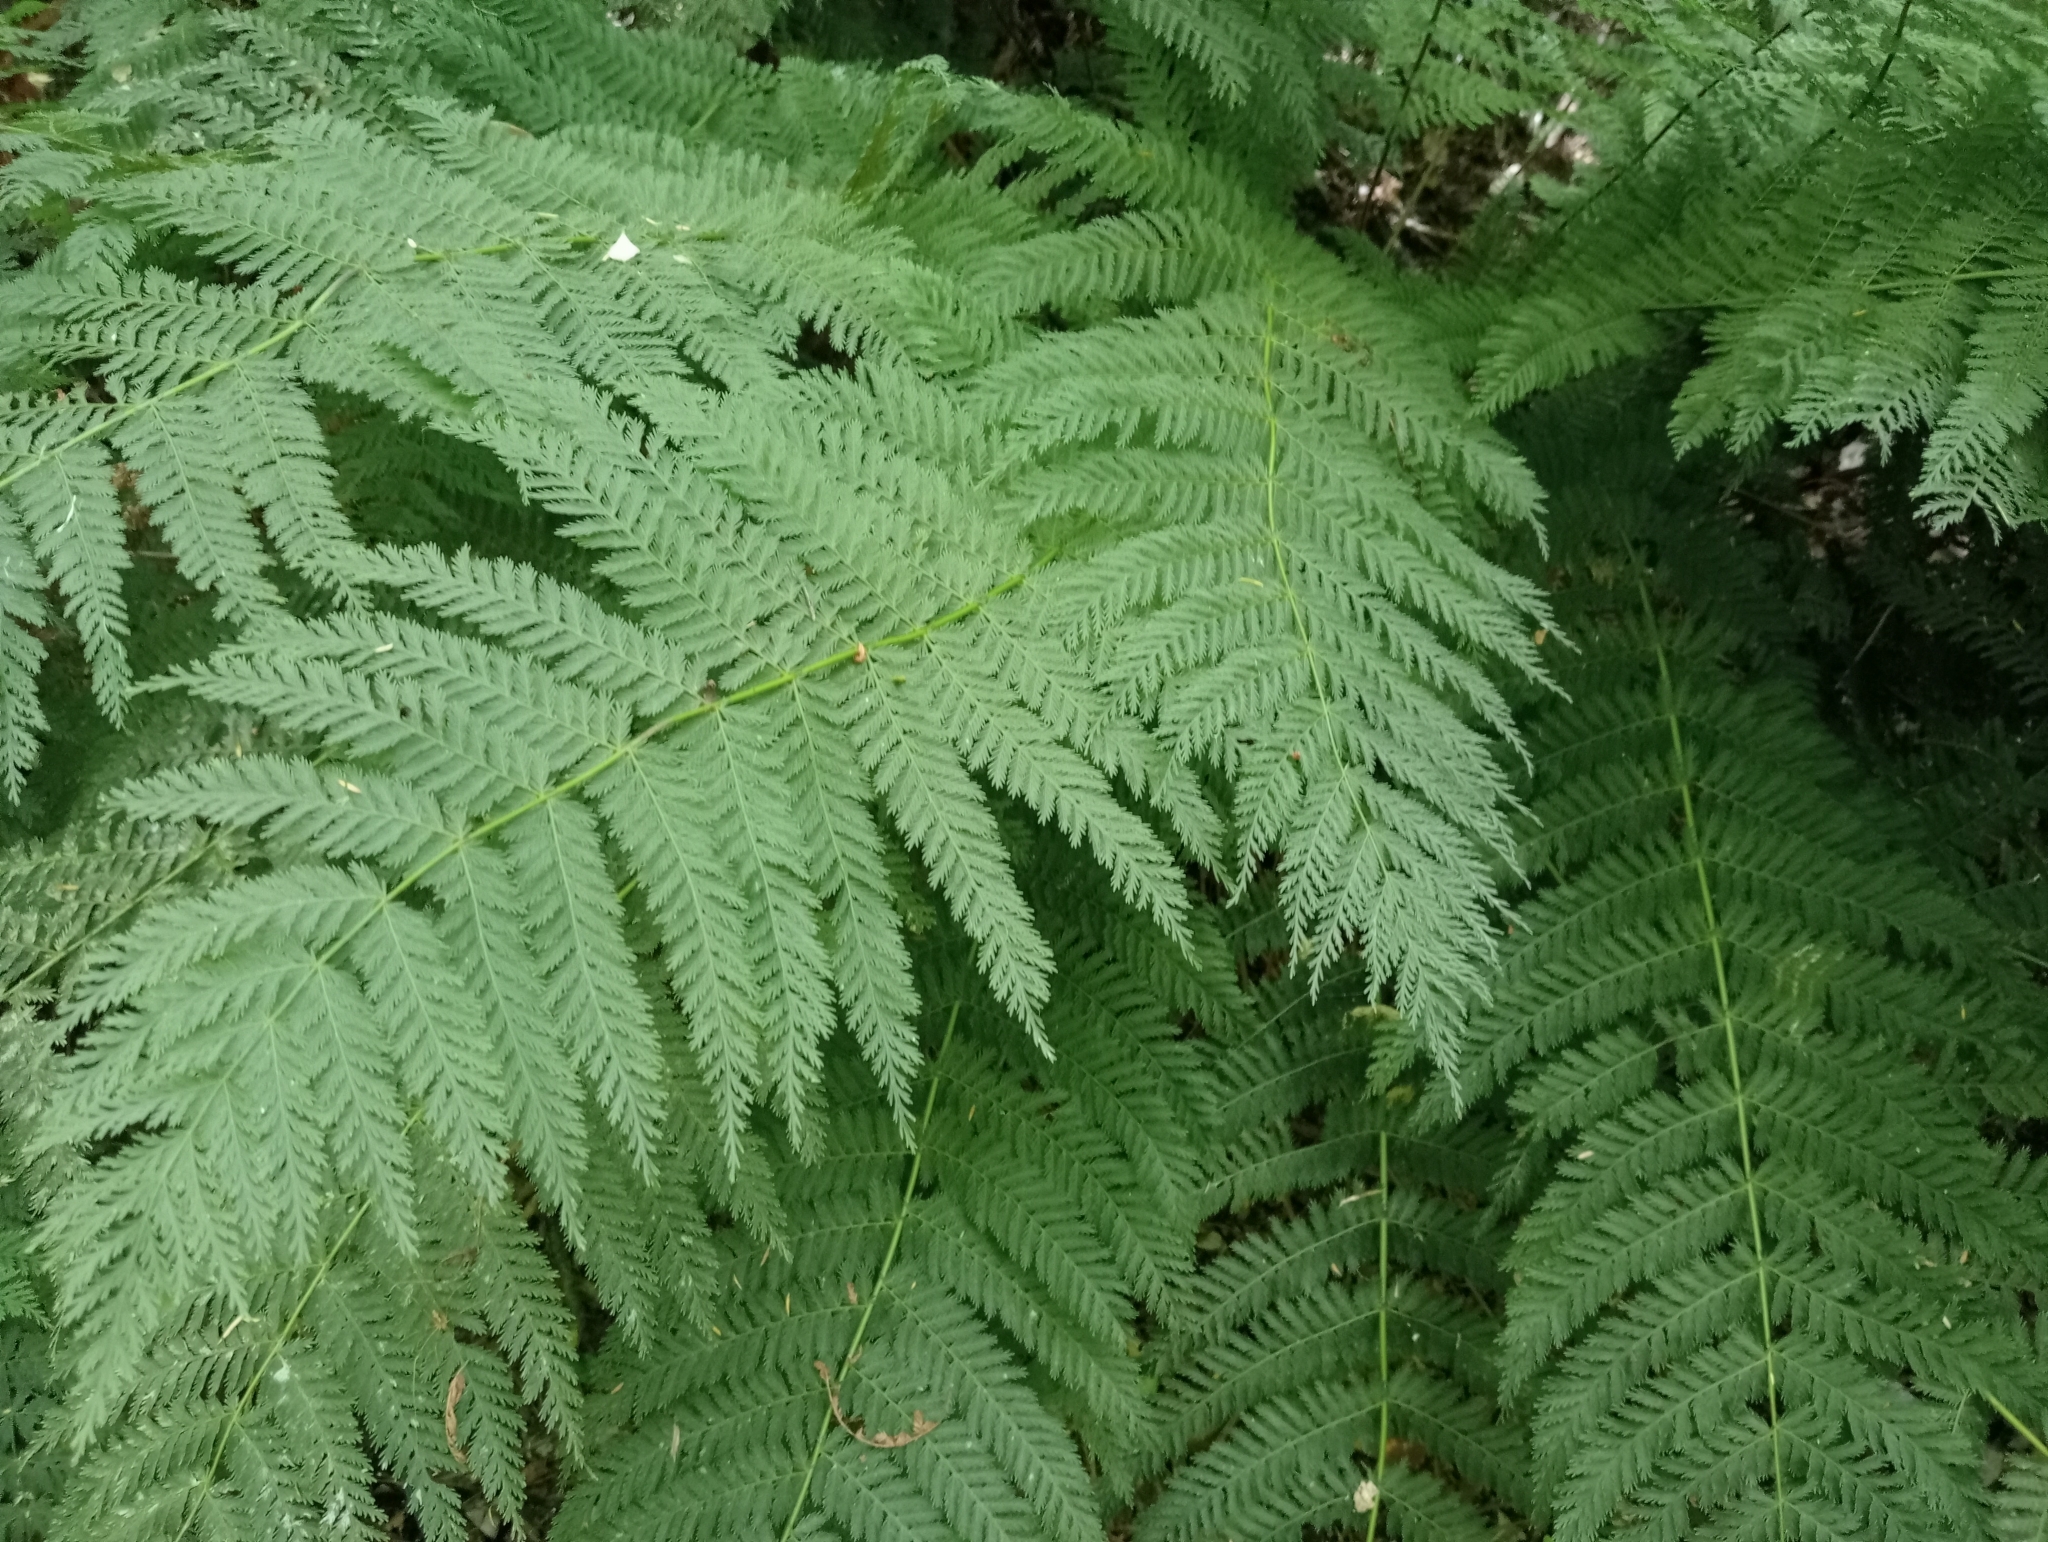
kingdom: Plantae
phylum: Tracheophyta
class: Polypodiopsida
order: Osmundales
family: Osmundaceae
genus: Leptopteris
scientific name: Leptopteris hymenophylloides
